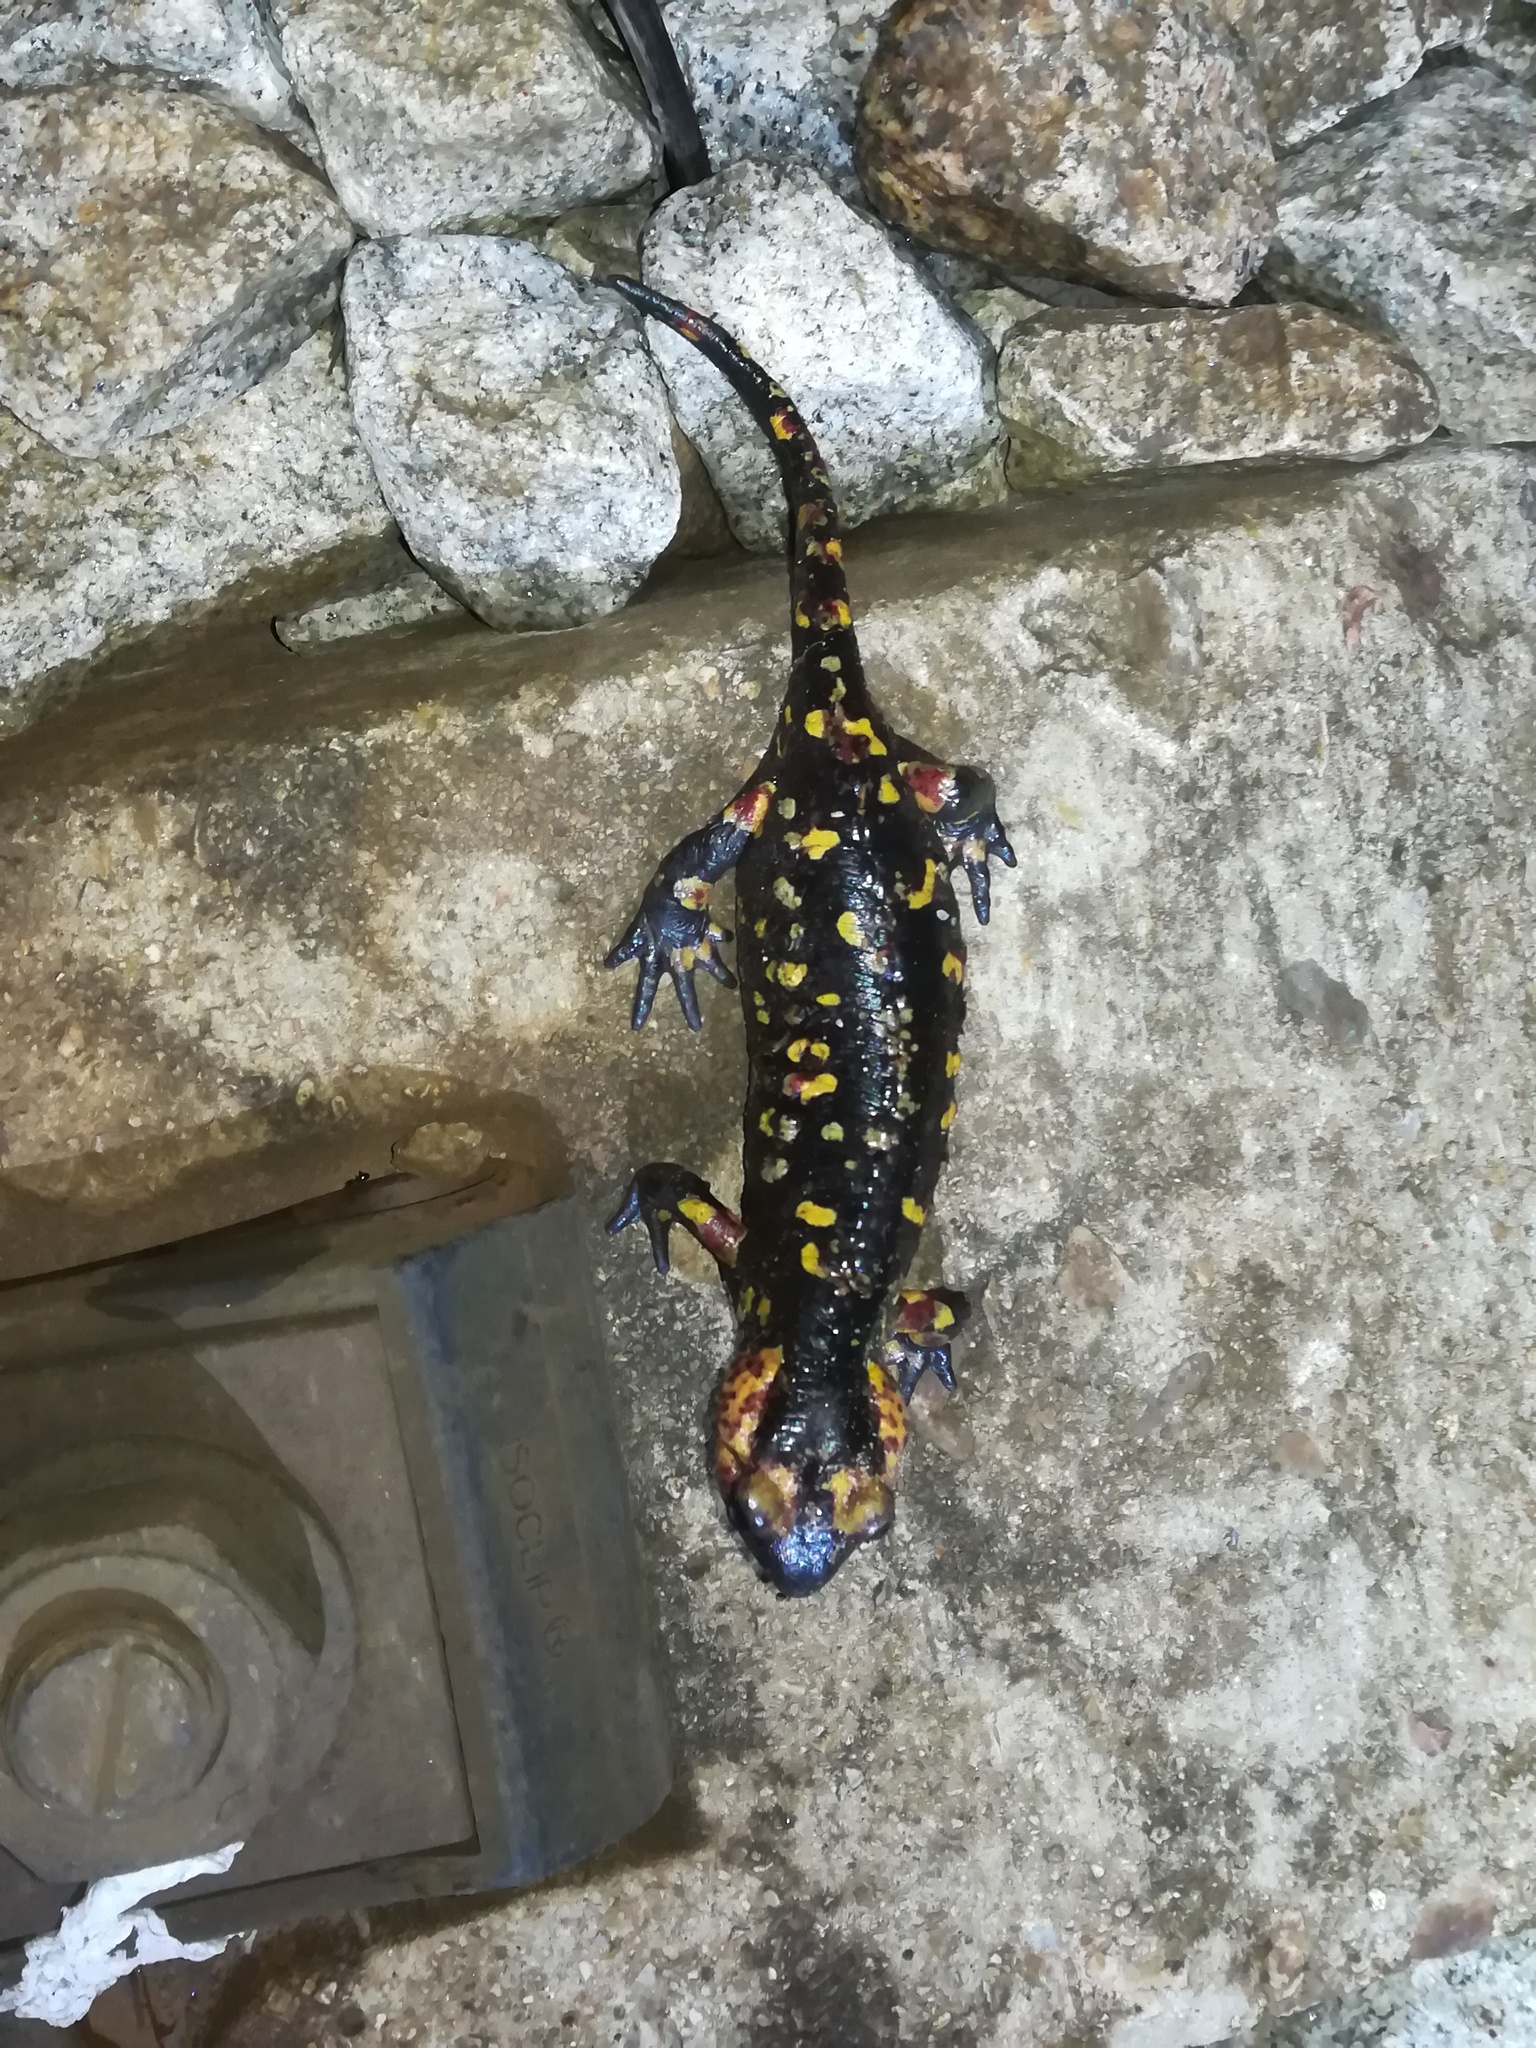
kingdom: Animalia
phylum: Chordata
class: Amphibia
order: Caudata
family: Salamandridae
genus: Salamandra
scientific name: Salamandra salamandra
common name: Fire salamander
